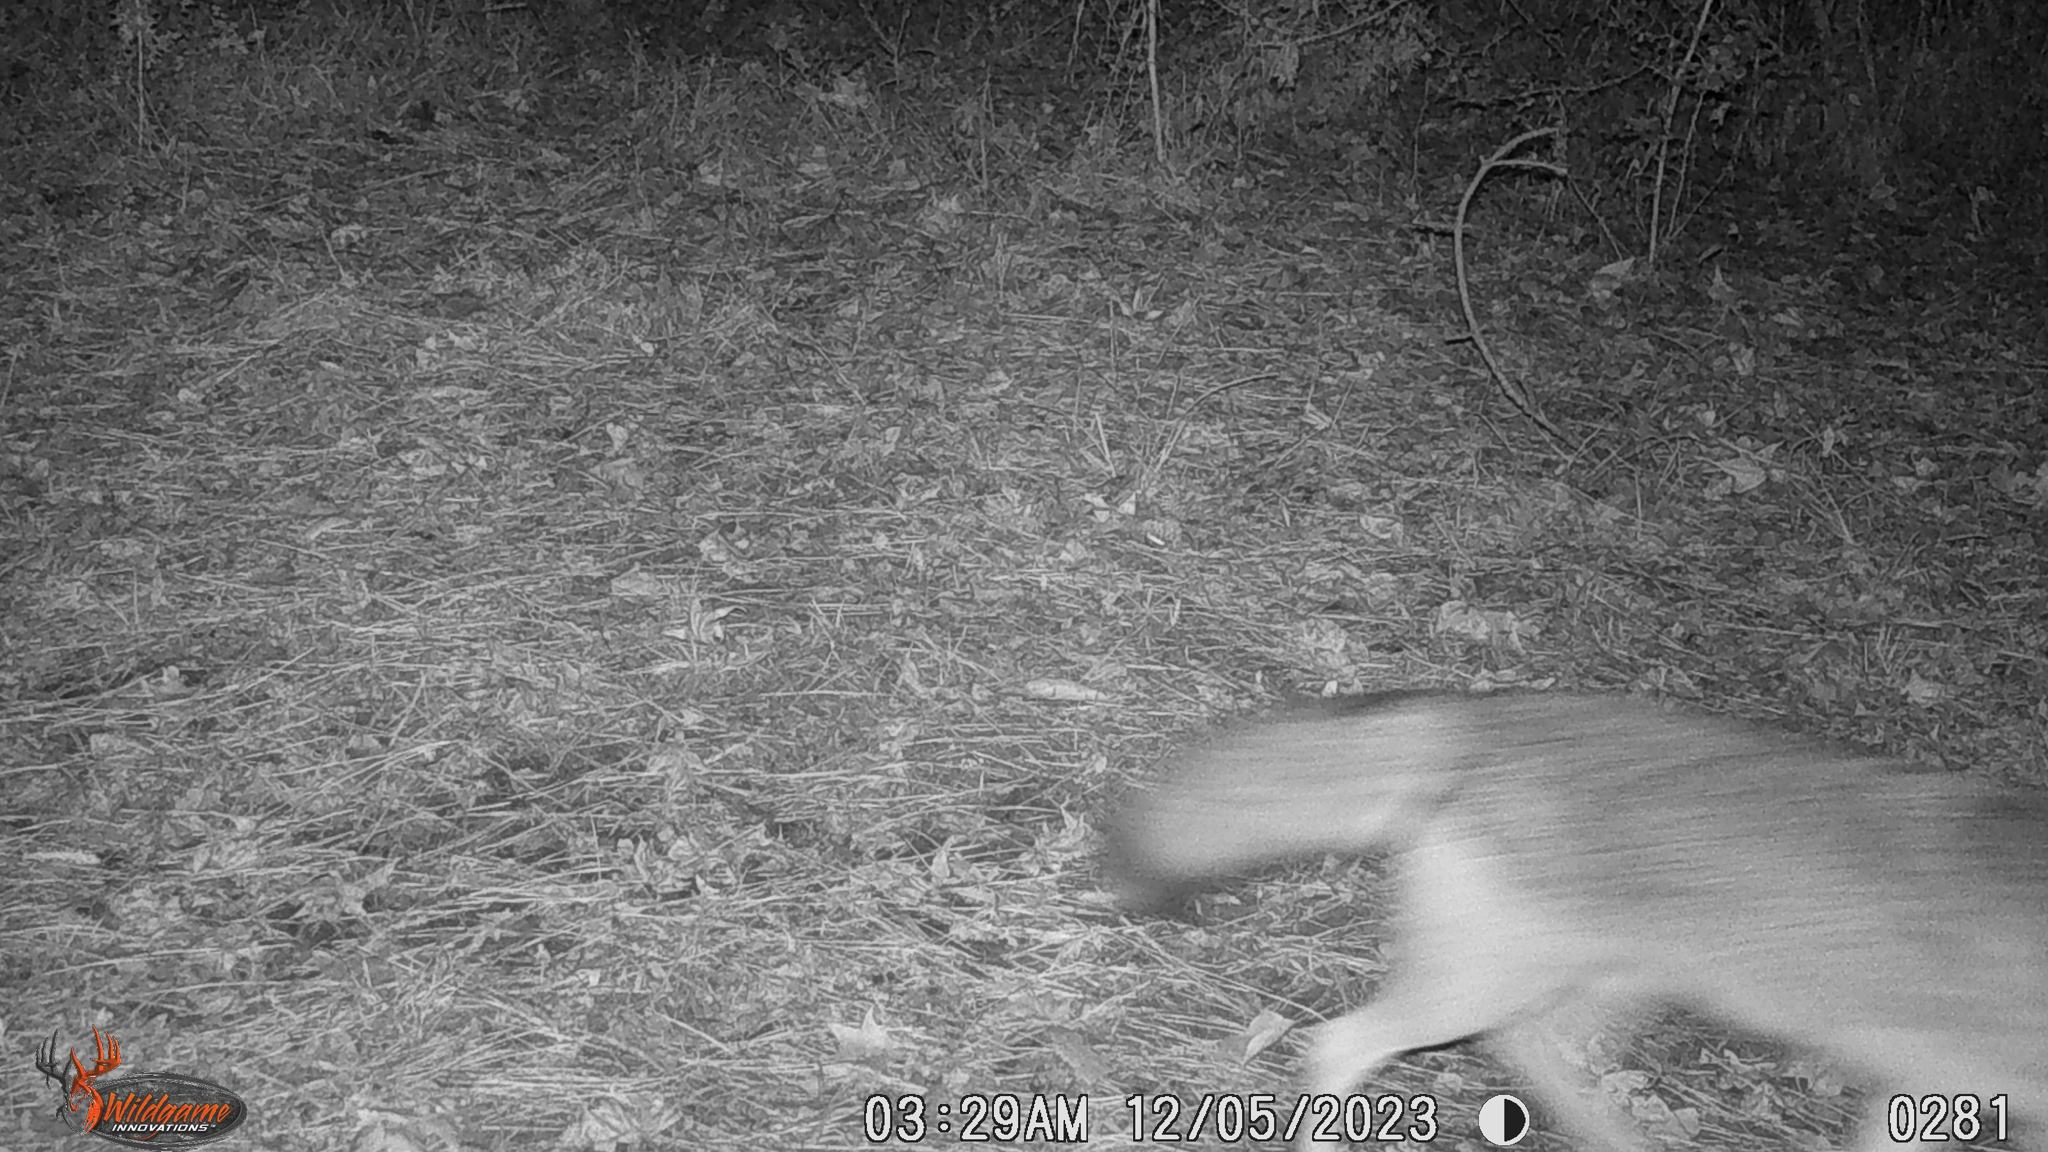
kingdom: Animalia
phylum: Chordata
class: Mammalia
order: Carnivora
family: Canidae
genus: Canis
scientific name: Canis latrans
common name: Coyote
